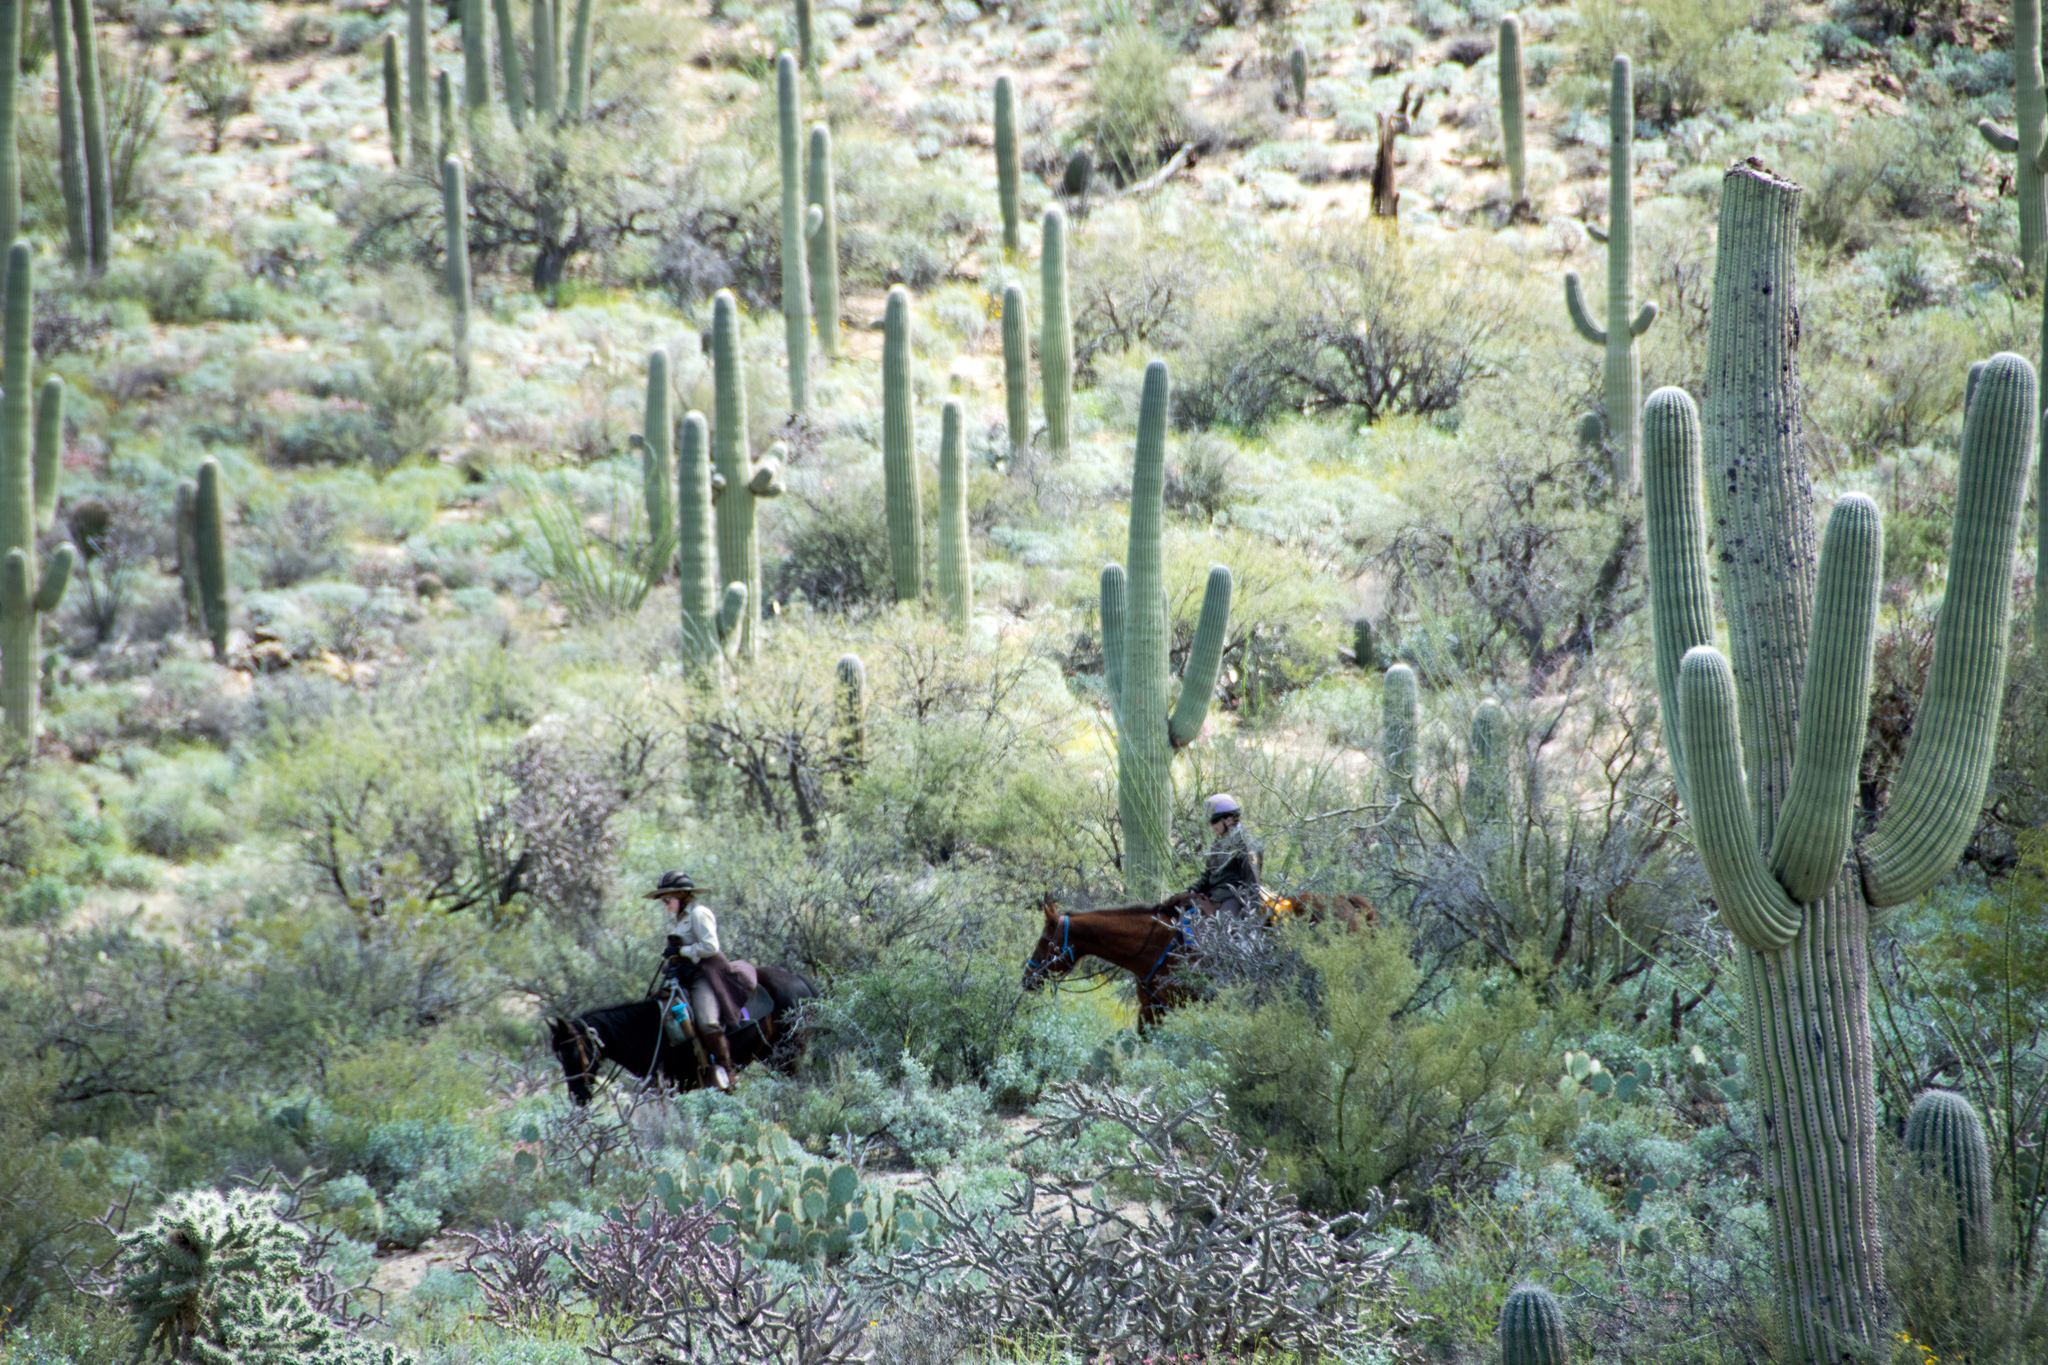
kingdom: Plantae
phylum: Tracheophyta
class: Magnoliopsida
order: Caryophyllales
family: Cactaceae
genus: Carnegiea
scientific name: Carnegiea gigantea
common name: Saguaro
